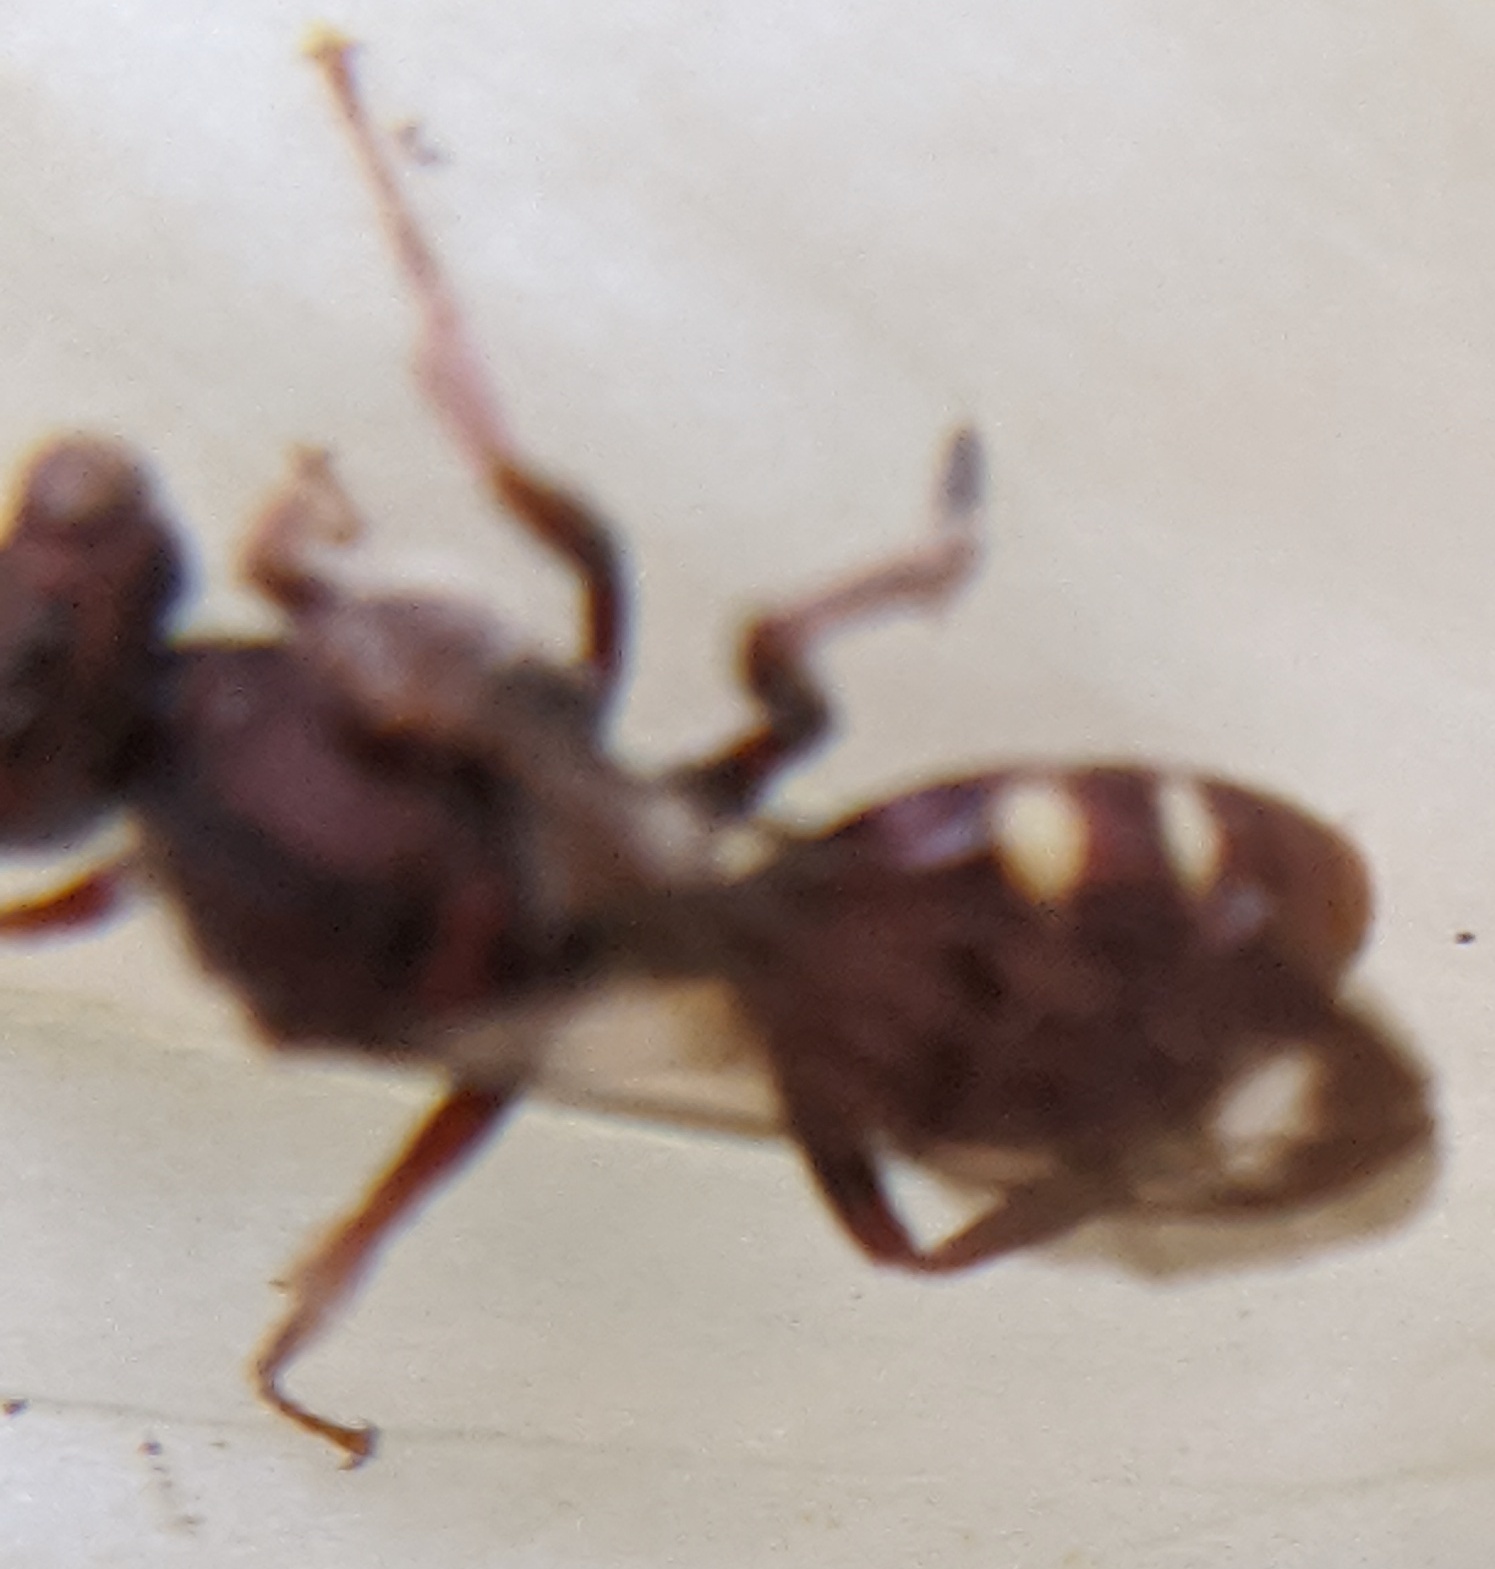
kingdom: Animalia
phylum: Arthropoda
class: Insecta
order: Hymenoptera
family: Apidae
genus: Nomada
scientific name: Nomada
